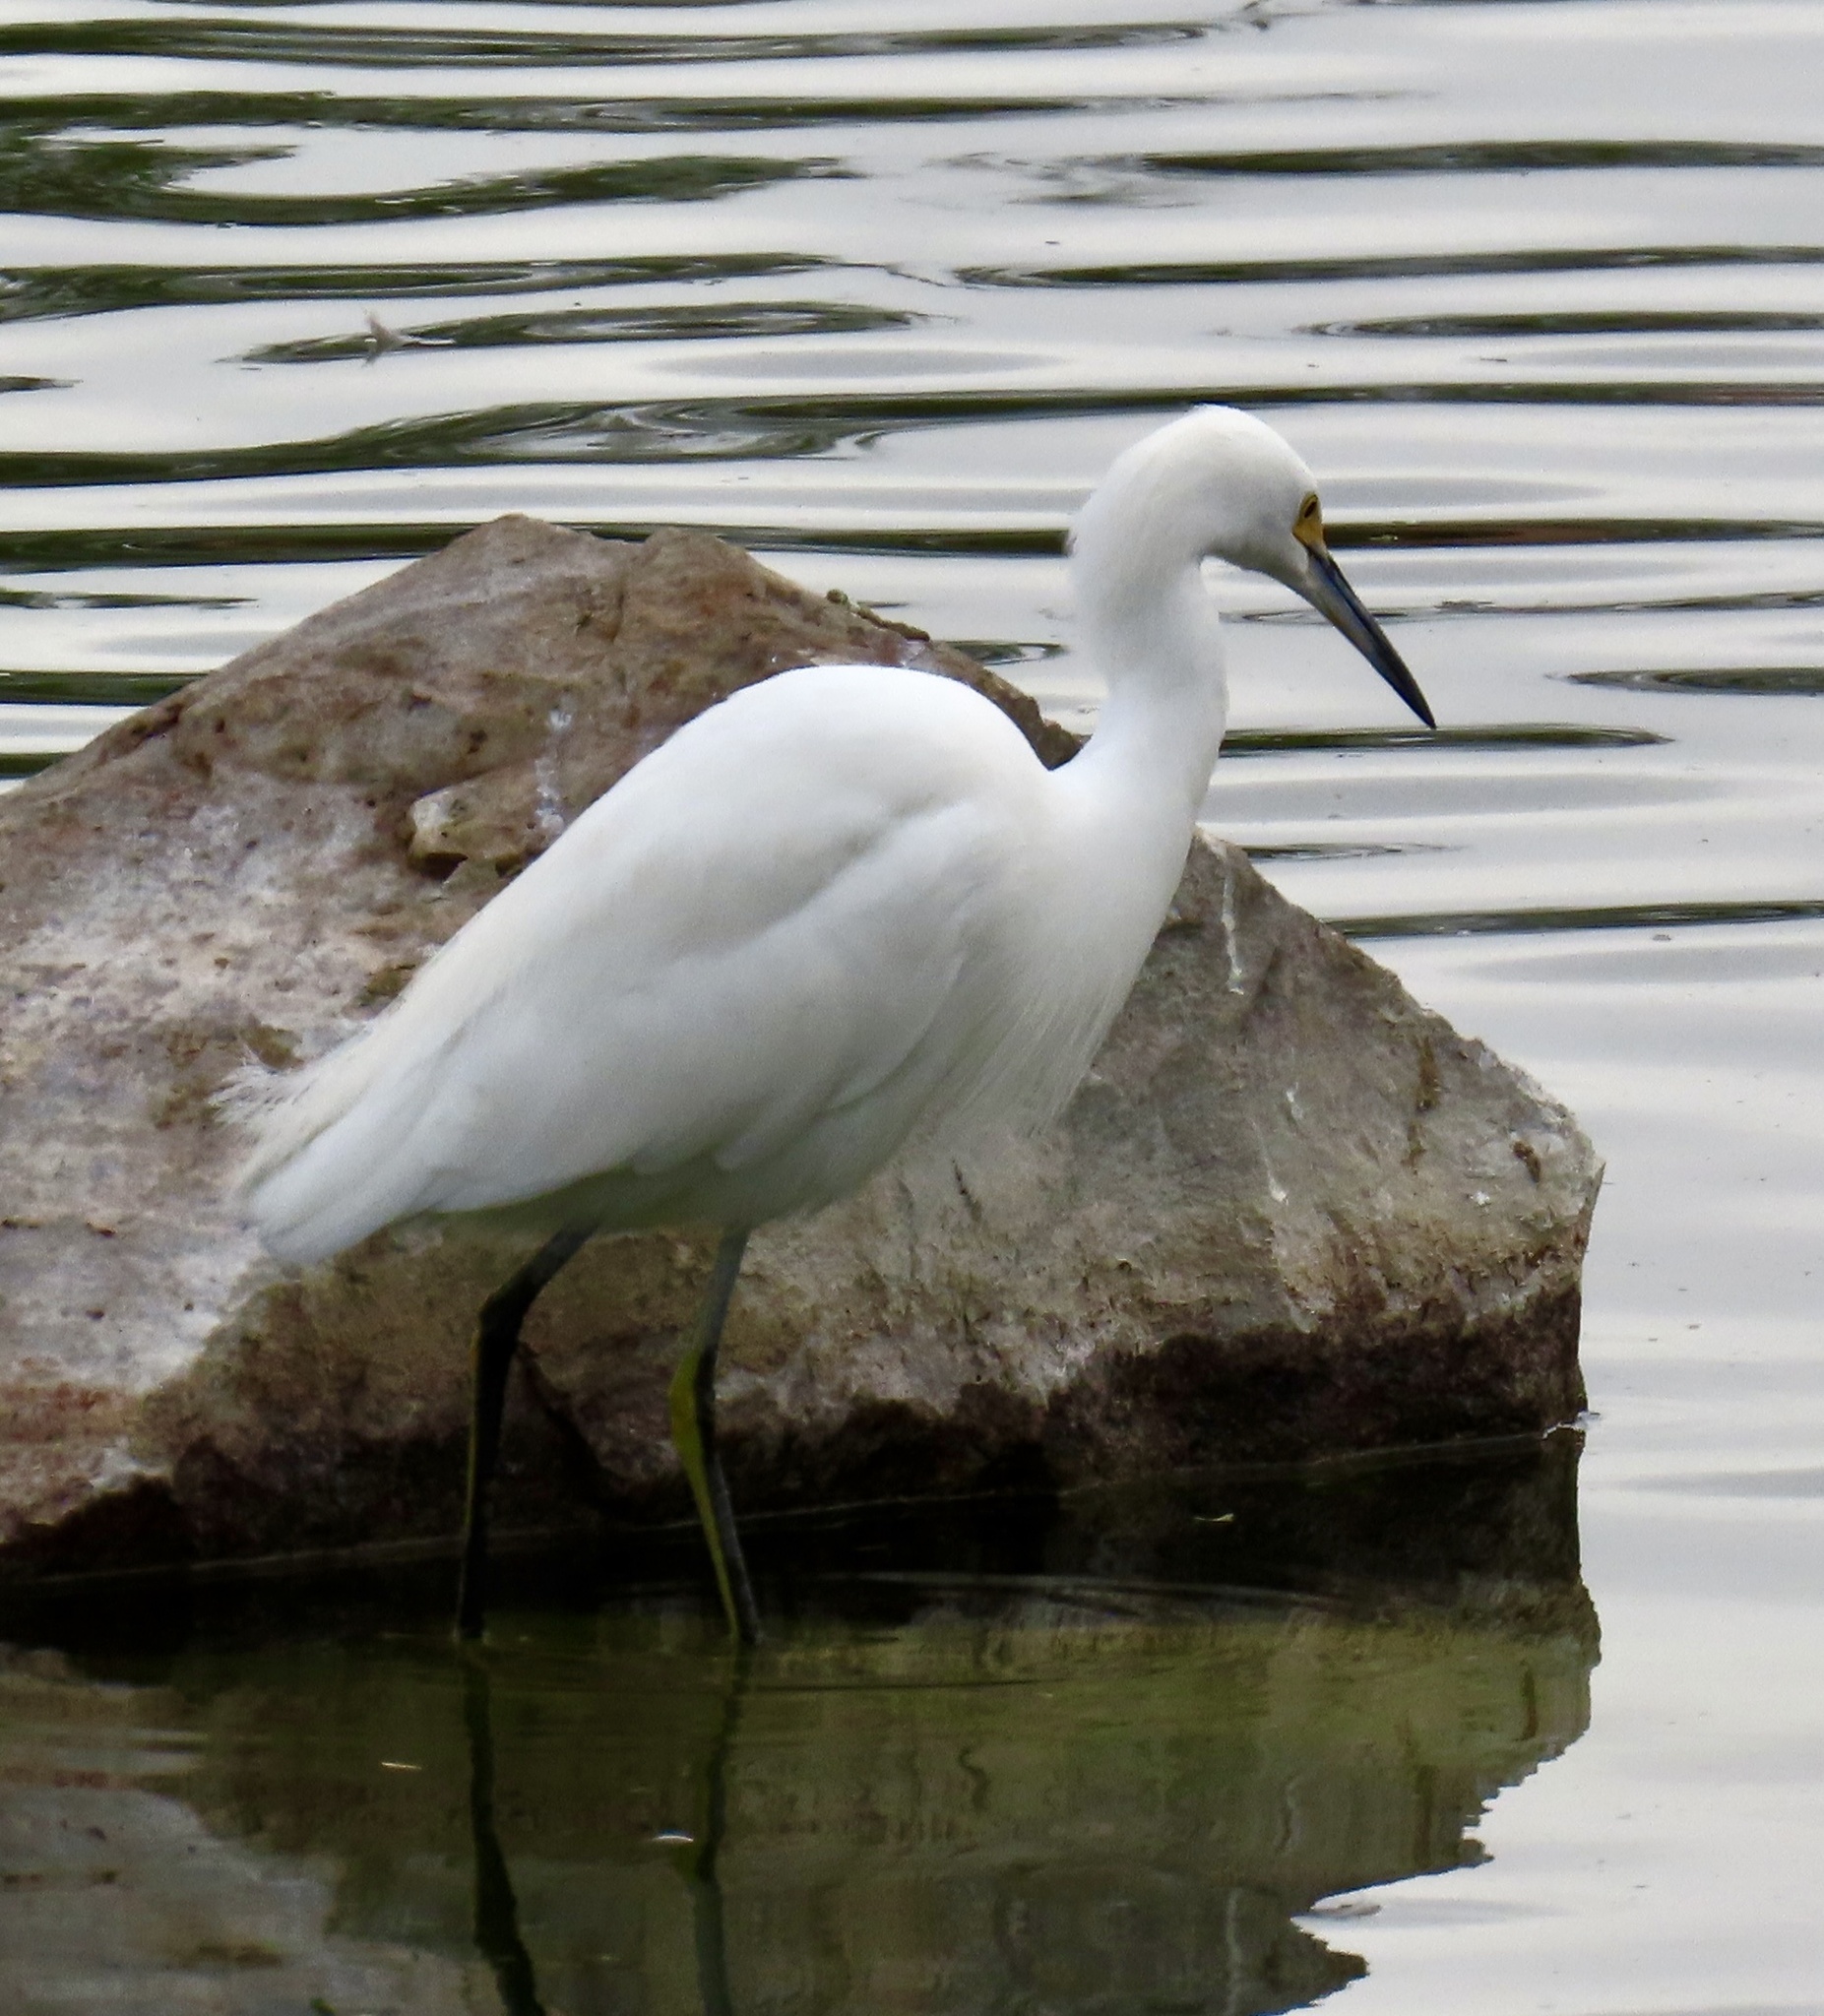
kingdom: Animalia
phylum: Chordata
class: Aves
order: Pelecaniformes
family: Ardeidae
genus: Egretta
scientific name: Egretta thula
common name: Snowy egret
